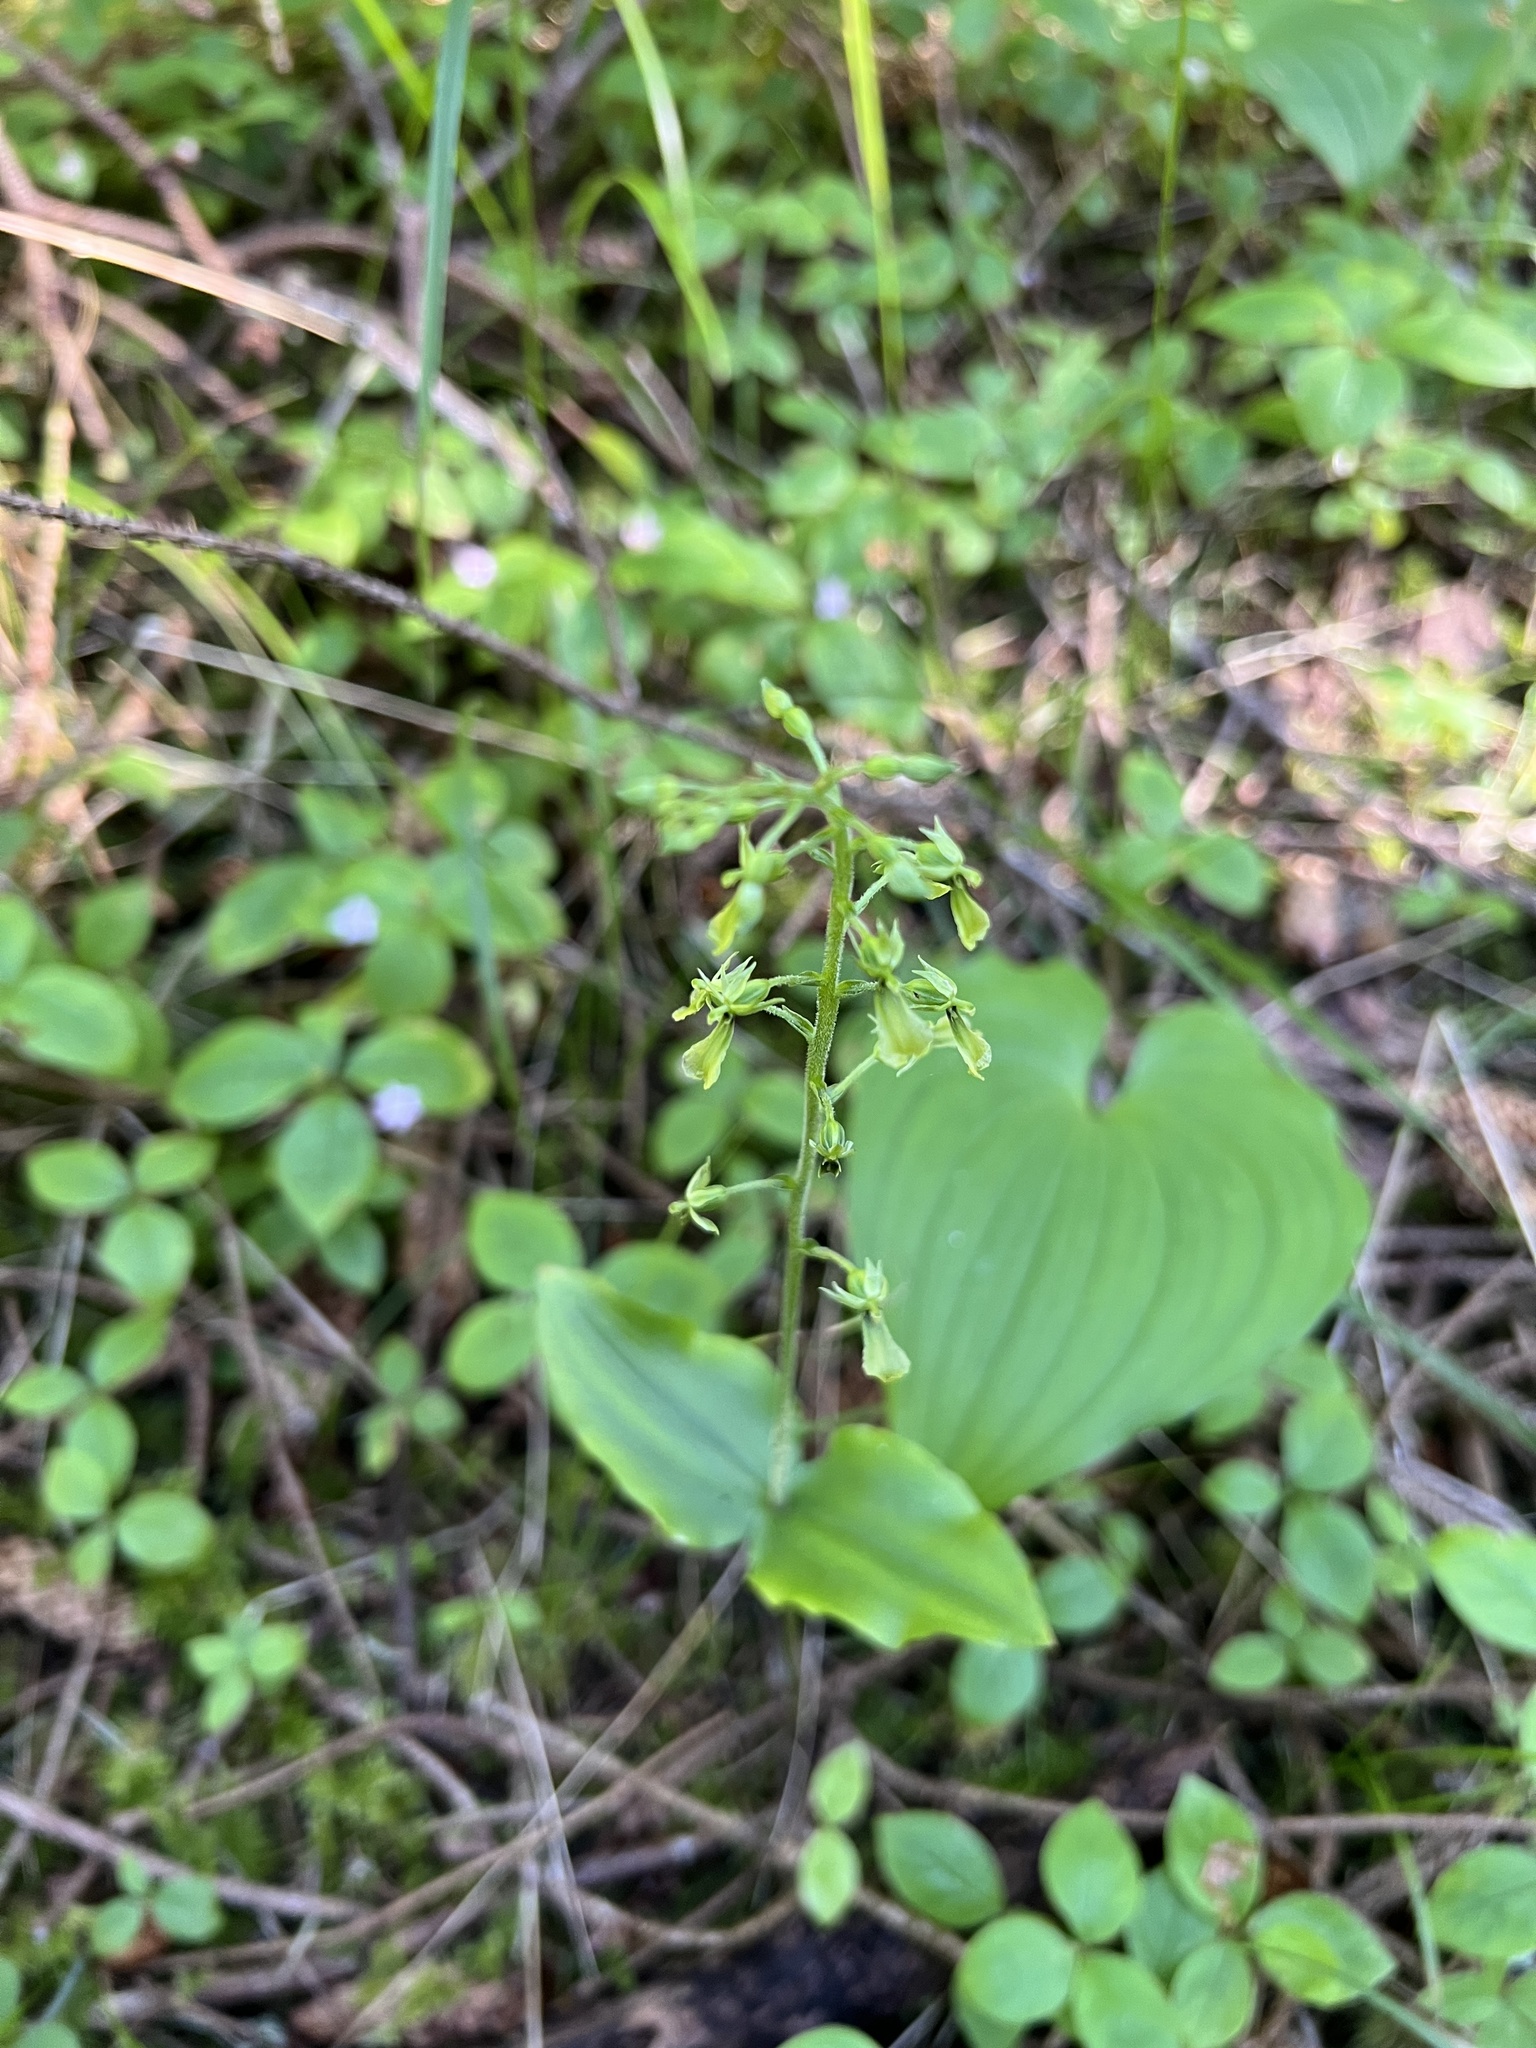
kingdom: Plantae
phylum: Tracheophyta
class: Liliopsida
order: Asparagales
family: Orchidaceae
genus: Neottia
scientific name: Neottia banksiana
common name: Northwestern twayblade
